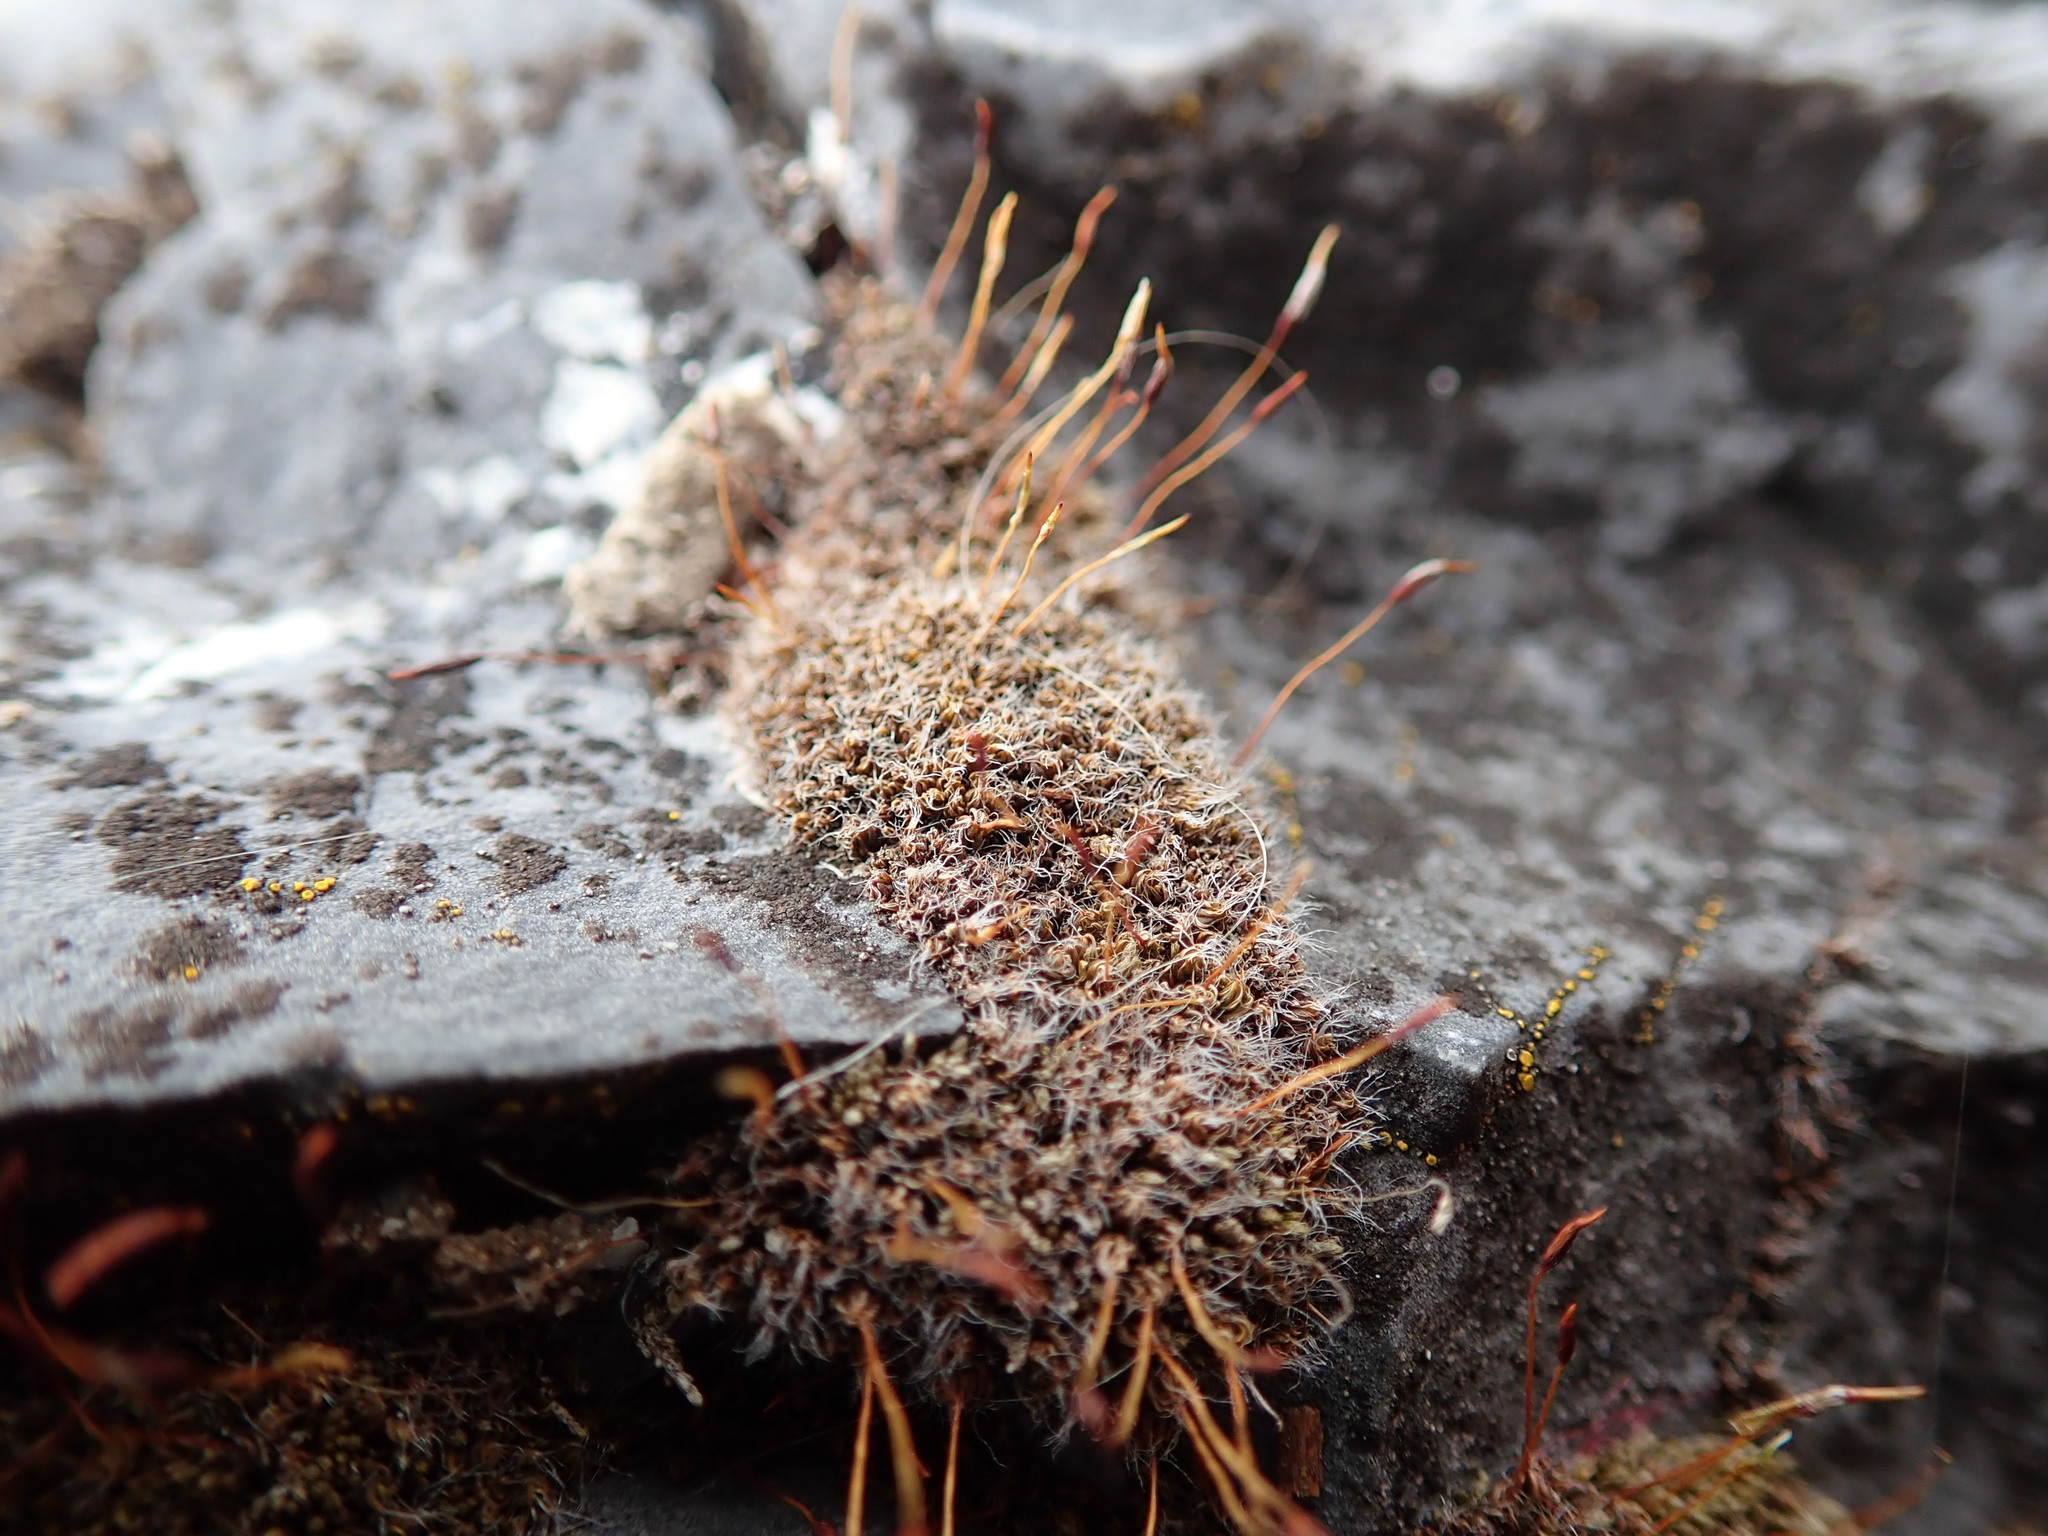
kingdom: Plantae
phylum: Bryophyta
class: Bryopsida
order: Pottiales
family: Pottiaceae
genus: Tortula
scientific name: Tortula muralis
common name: Wall screw-moss
